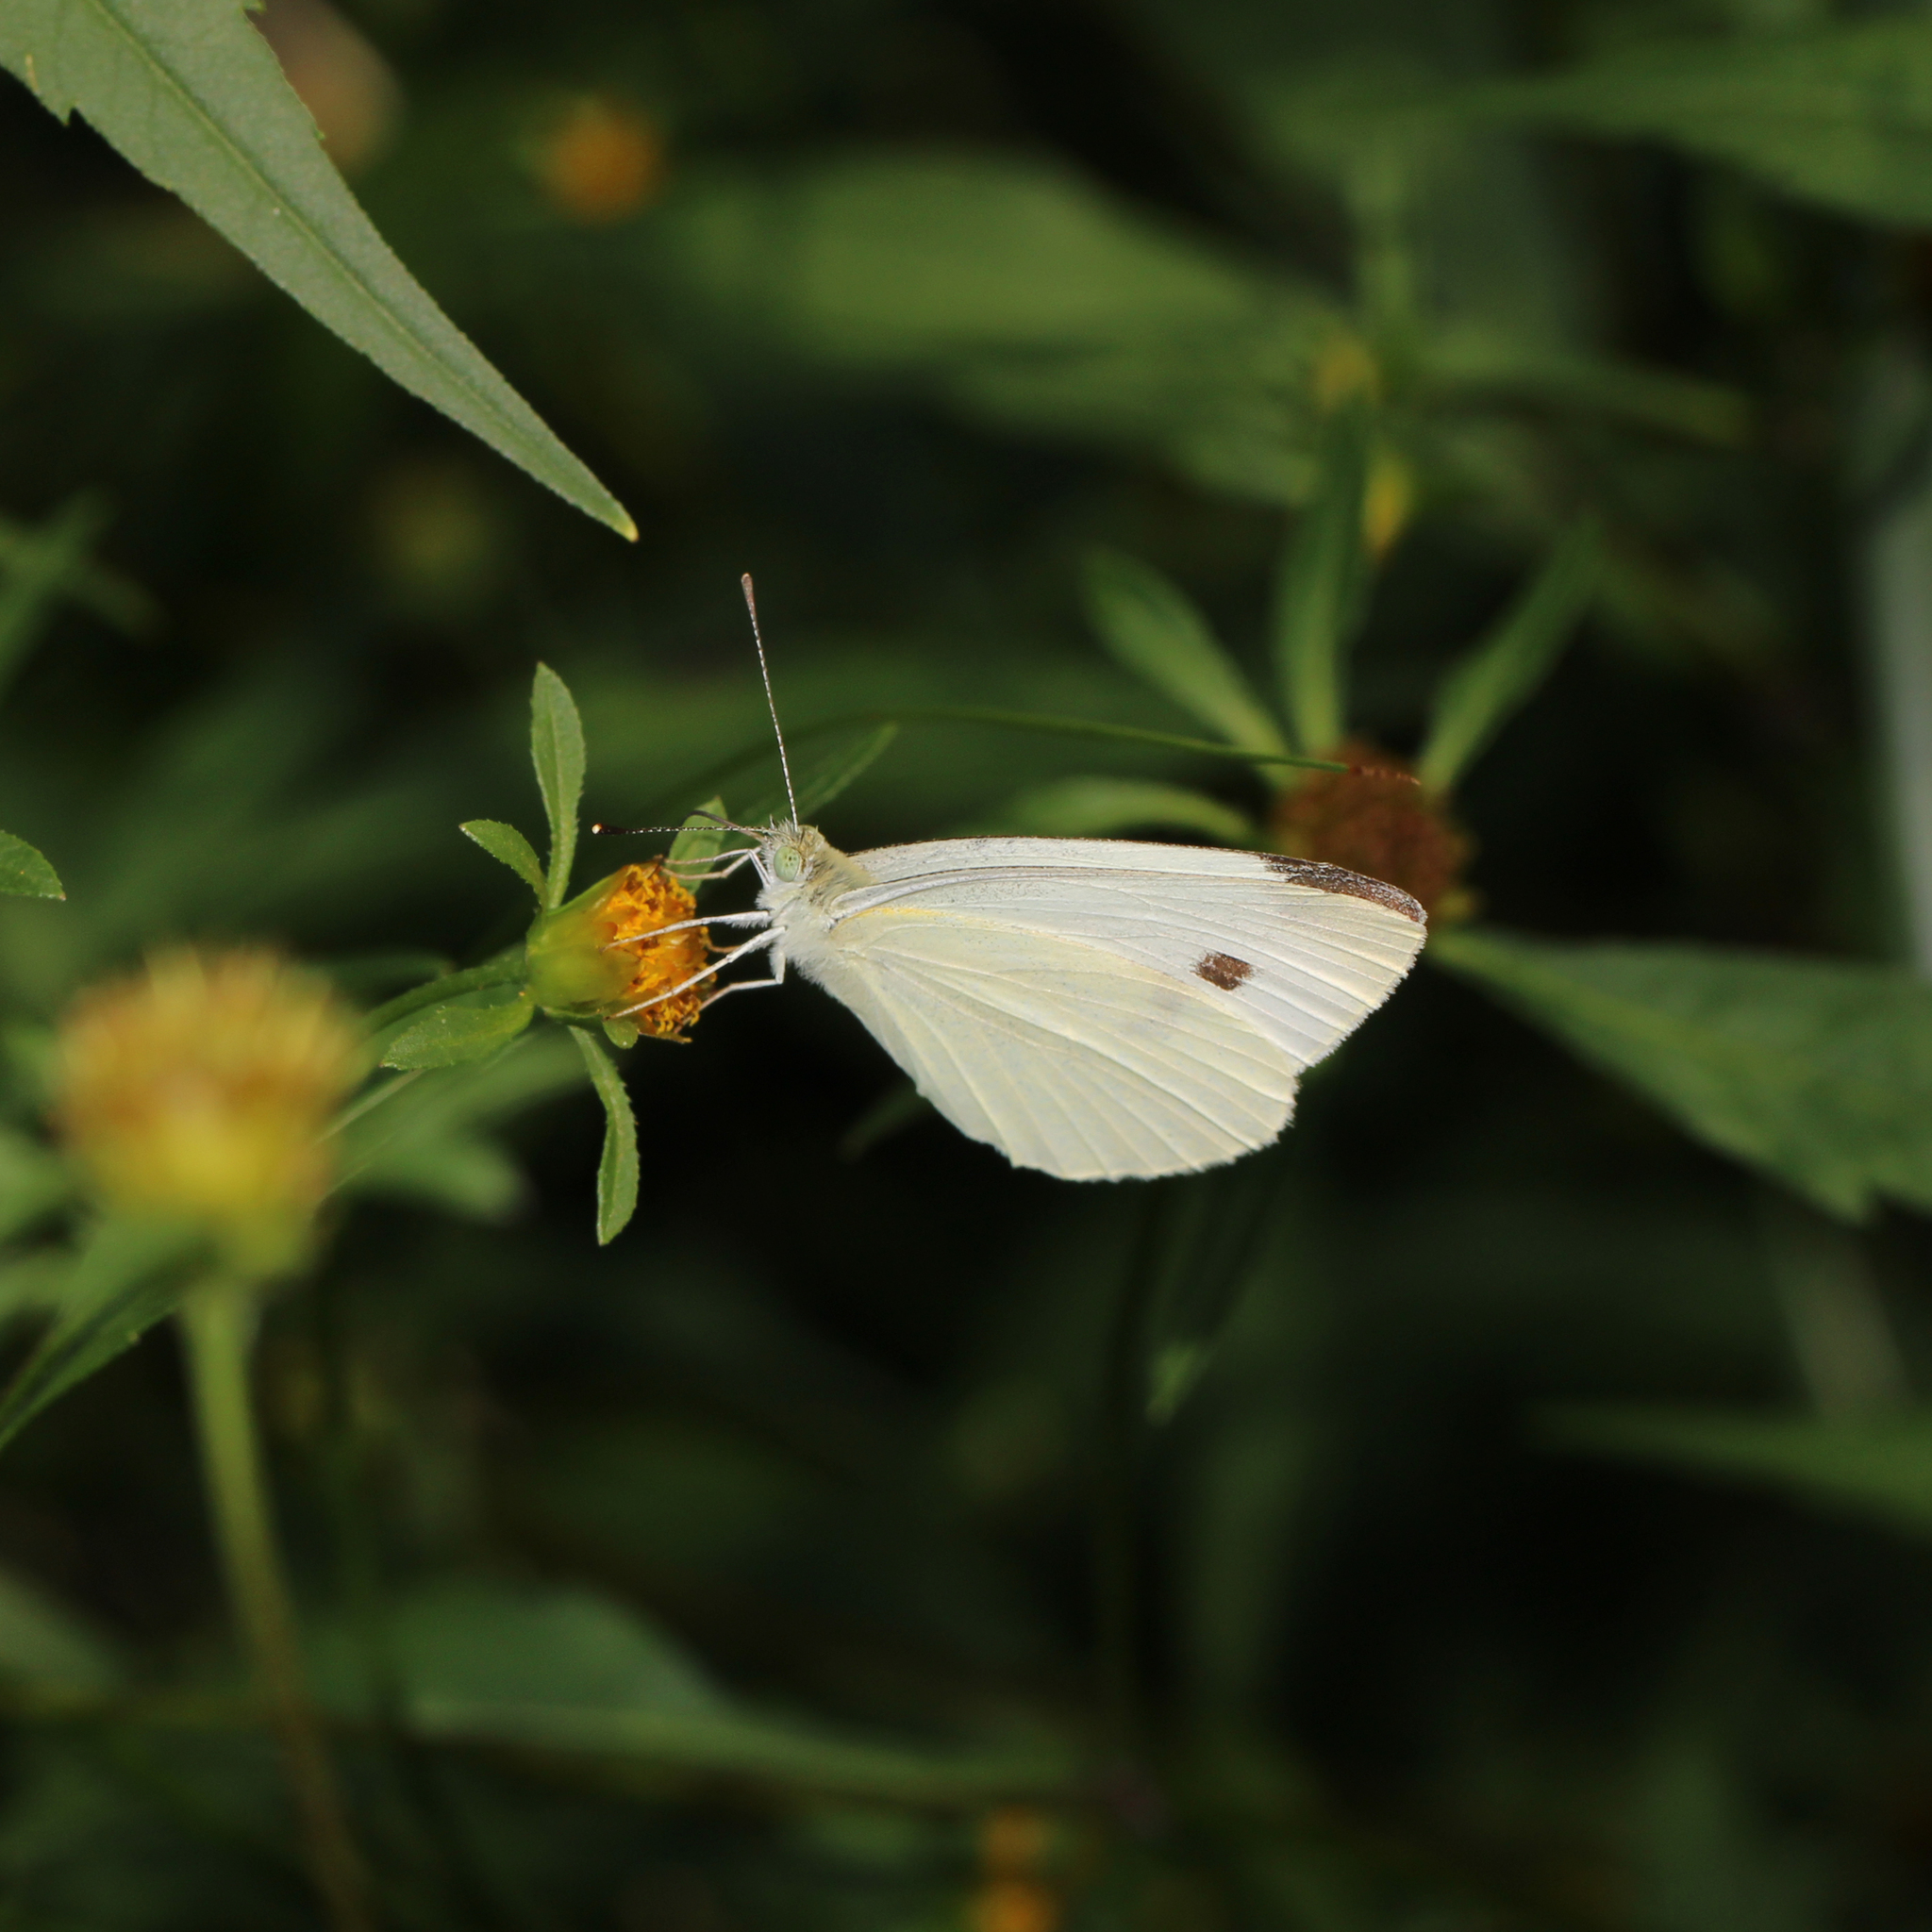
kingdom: Animalia
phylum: Arthropoda
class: Insecta
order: Lepidoptera
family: Pieridae
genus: Pieris
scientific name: Pieris rapae
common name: Small white
